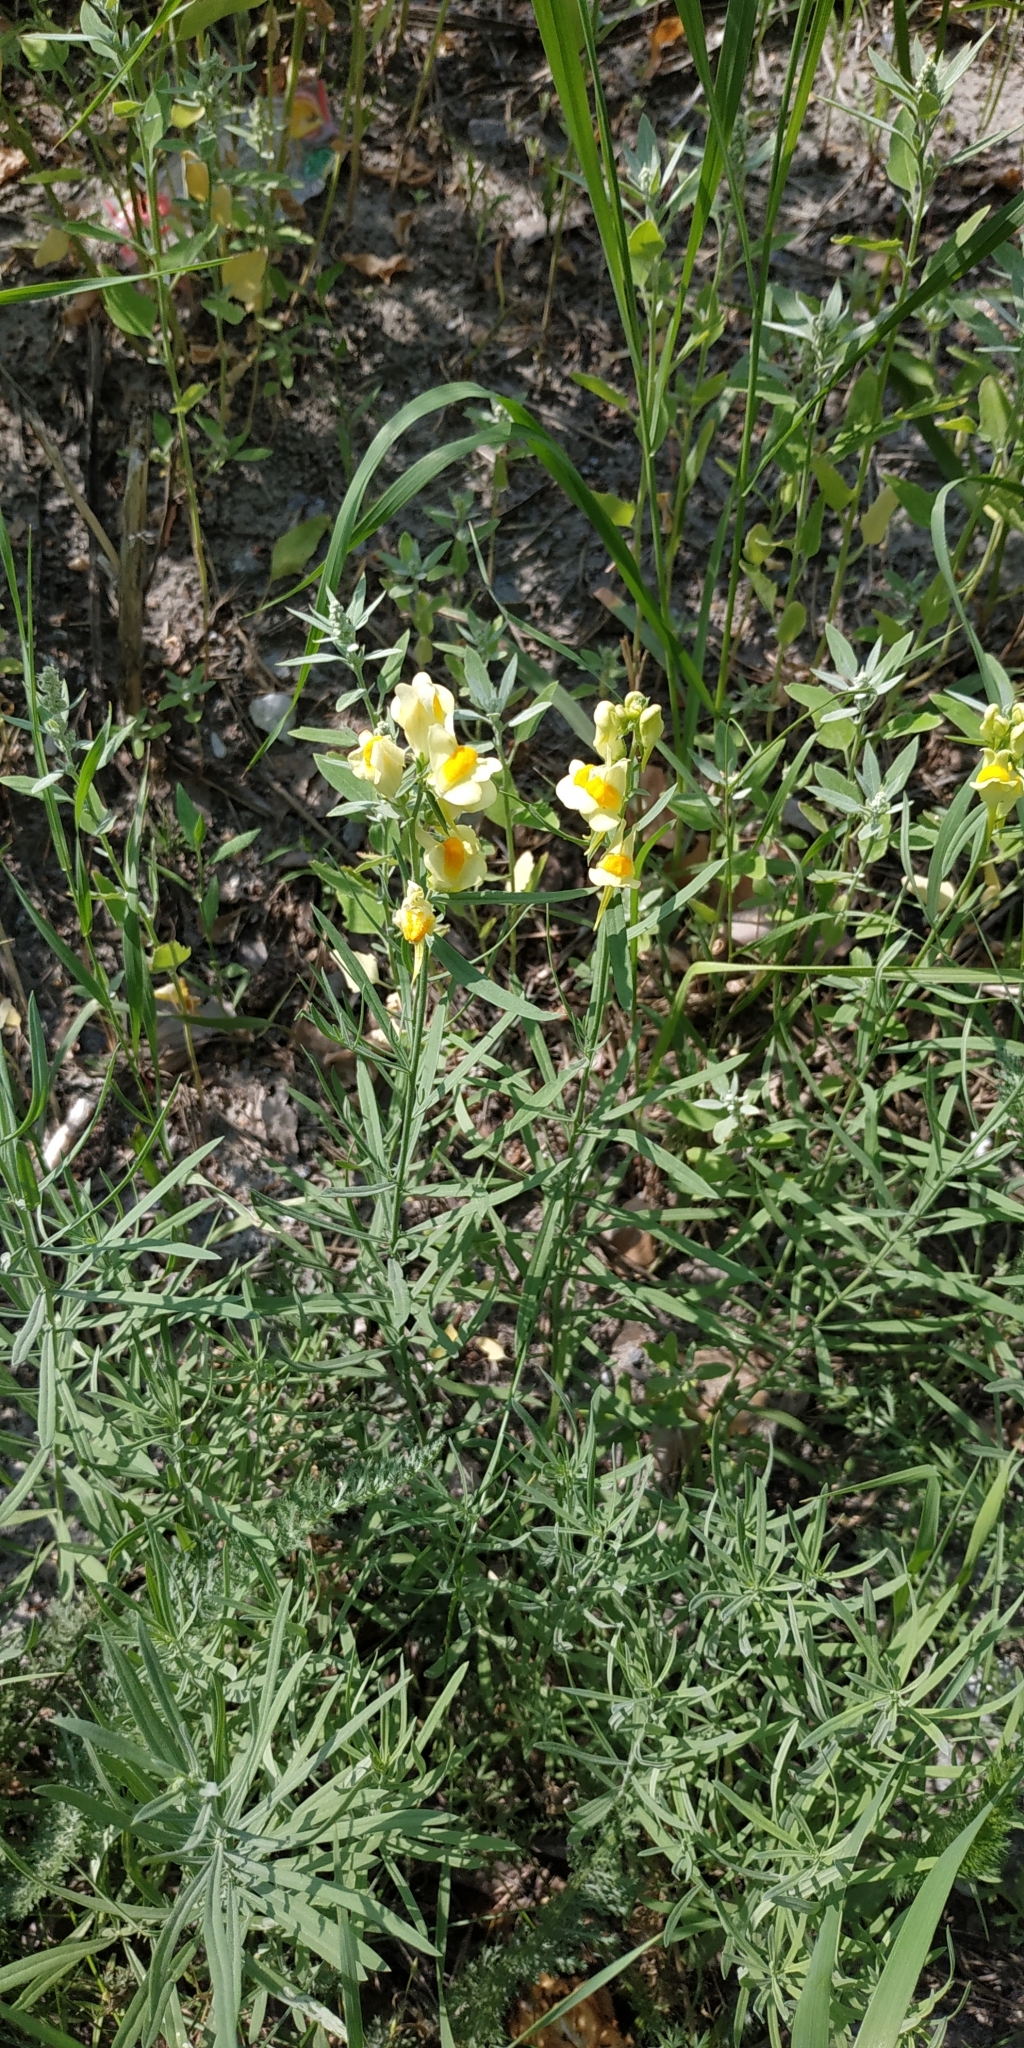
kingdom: Plantae
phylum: Tracheophyta
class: Magnoliopsida
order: Lamiales
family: Plantaginaceae
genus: Linaria
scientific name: Linaria vulgaris
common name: Butter and eggs
